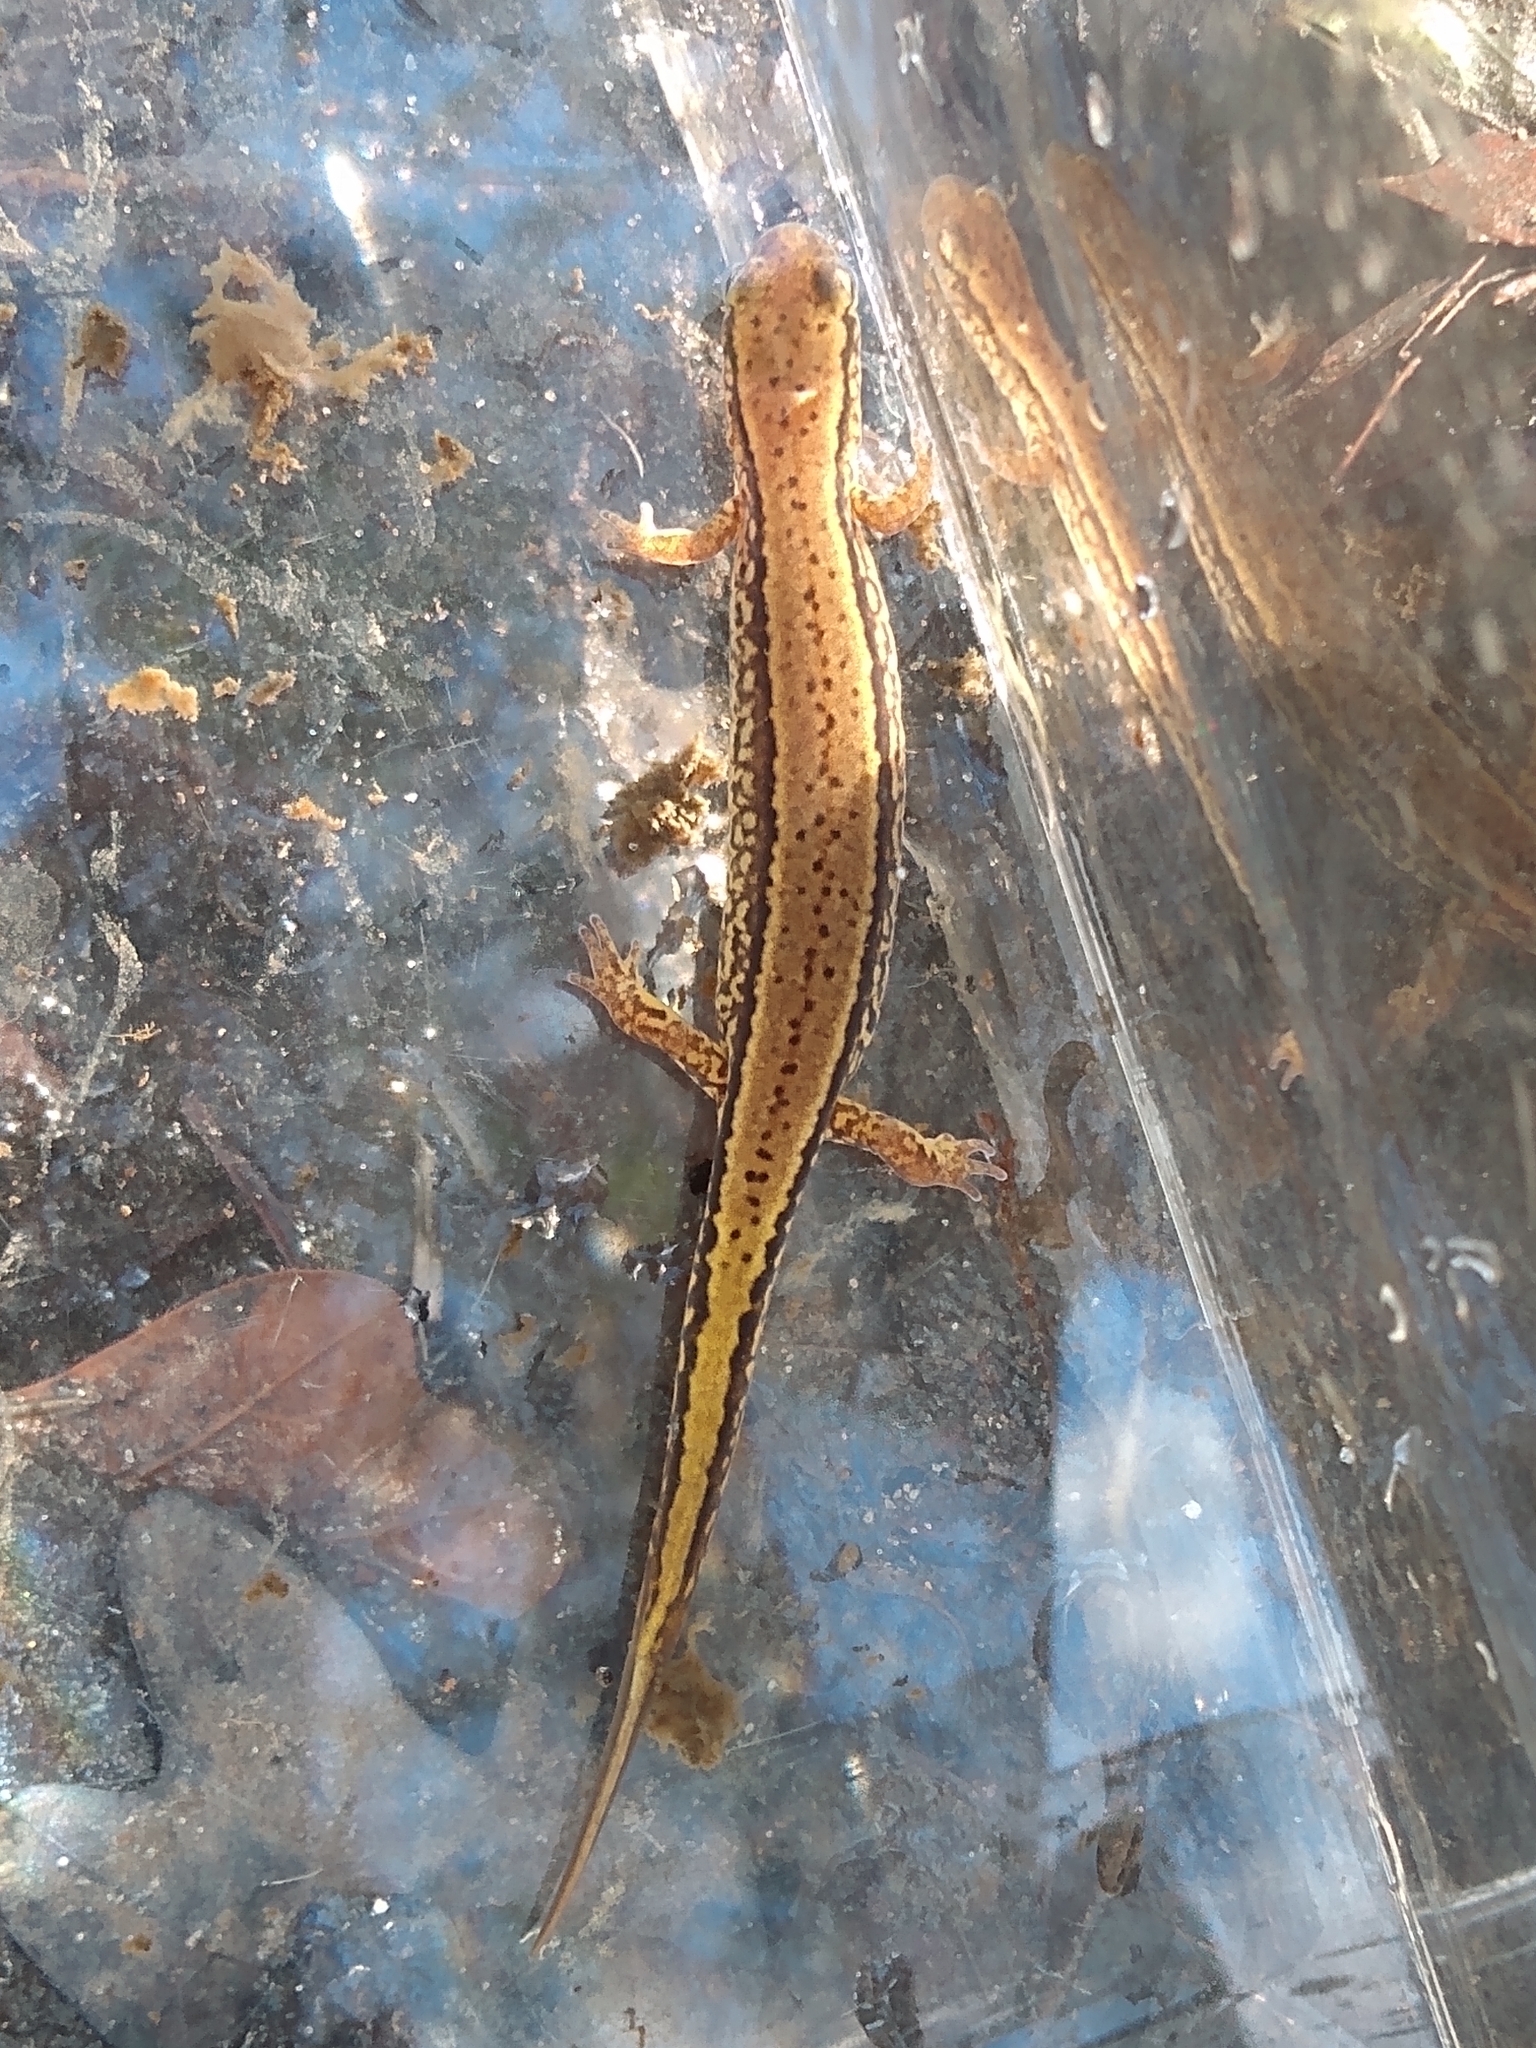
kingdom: Animalia
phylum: Chordata
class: Amphibia
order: Caudata
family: Plethodontidae
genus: Eurycea
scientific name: Eurycea cirrigera
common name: Southern two-lined salamander
